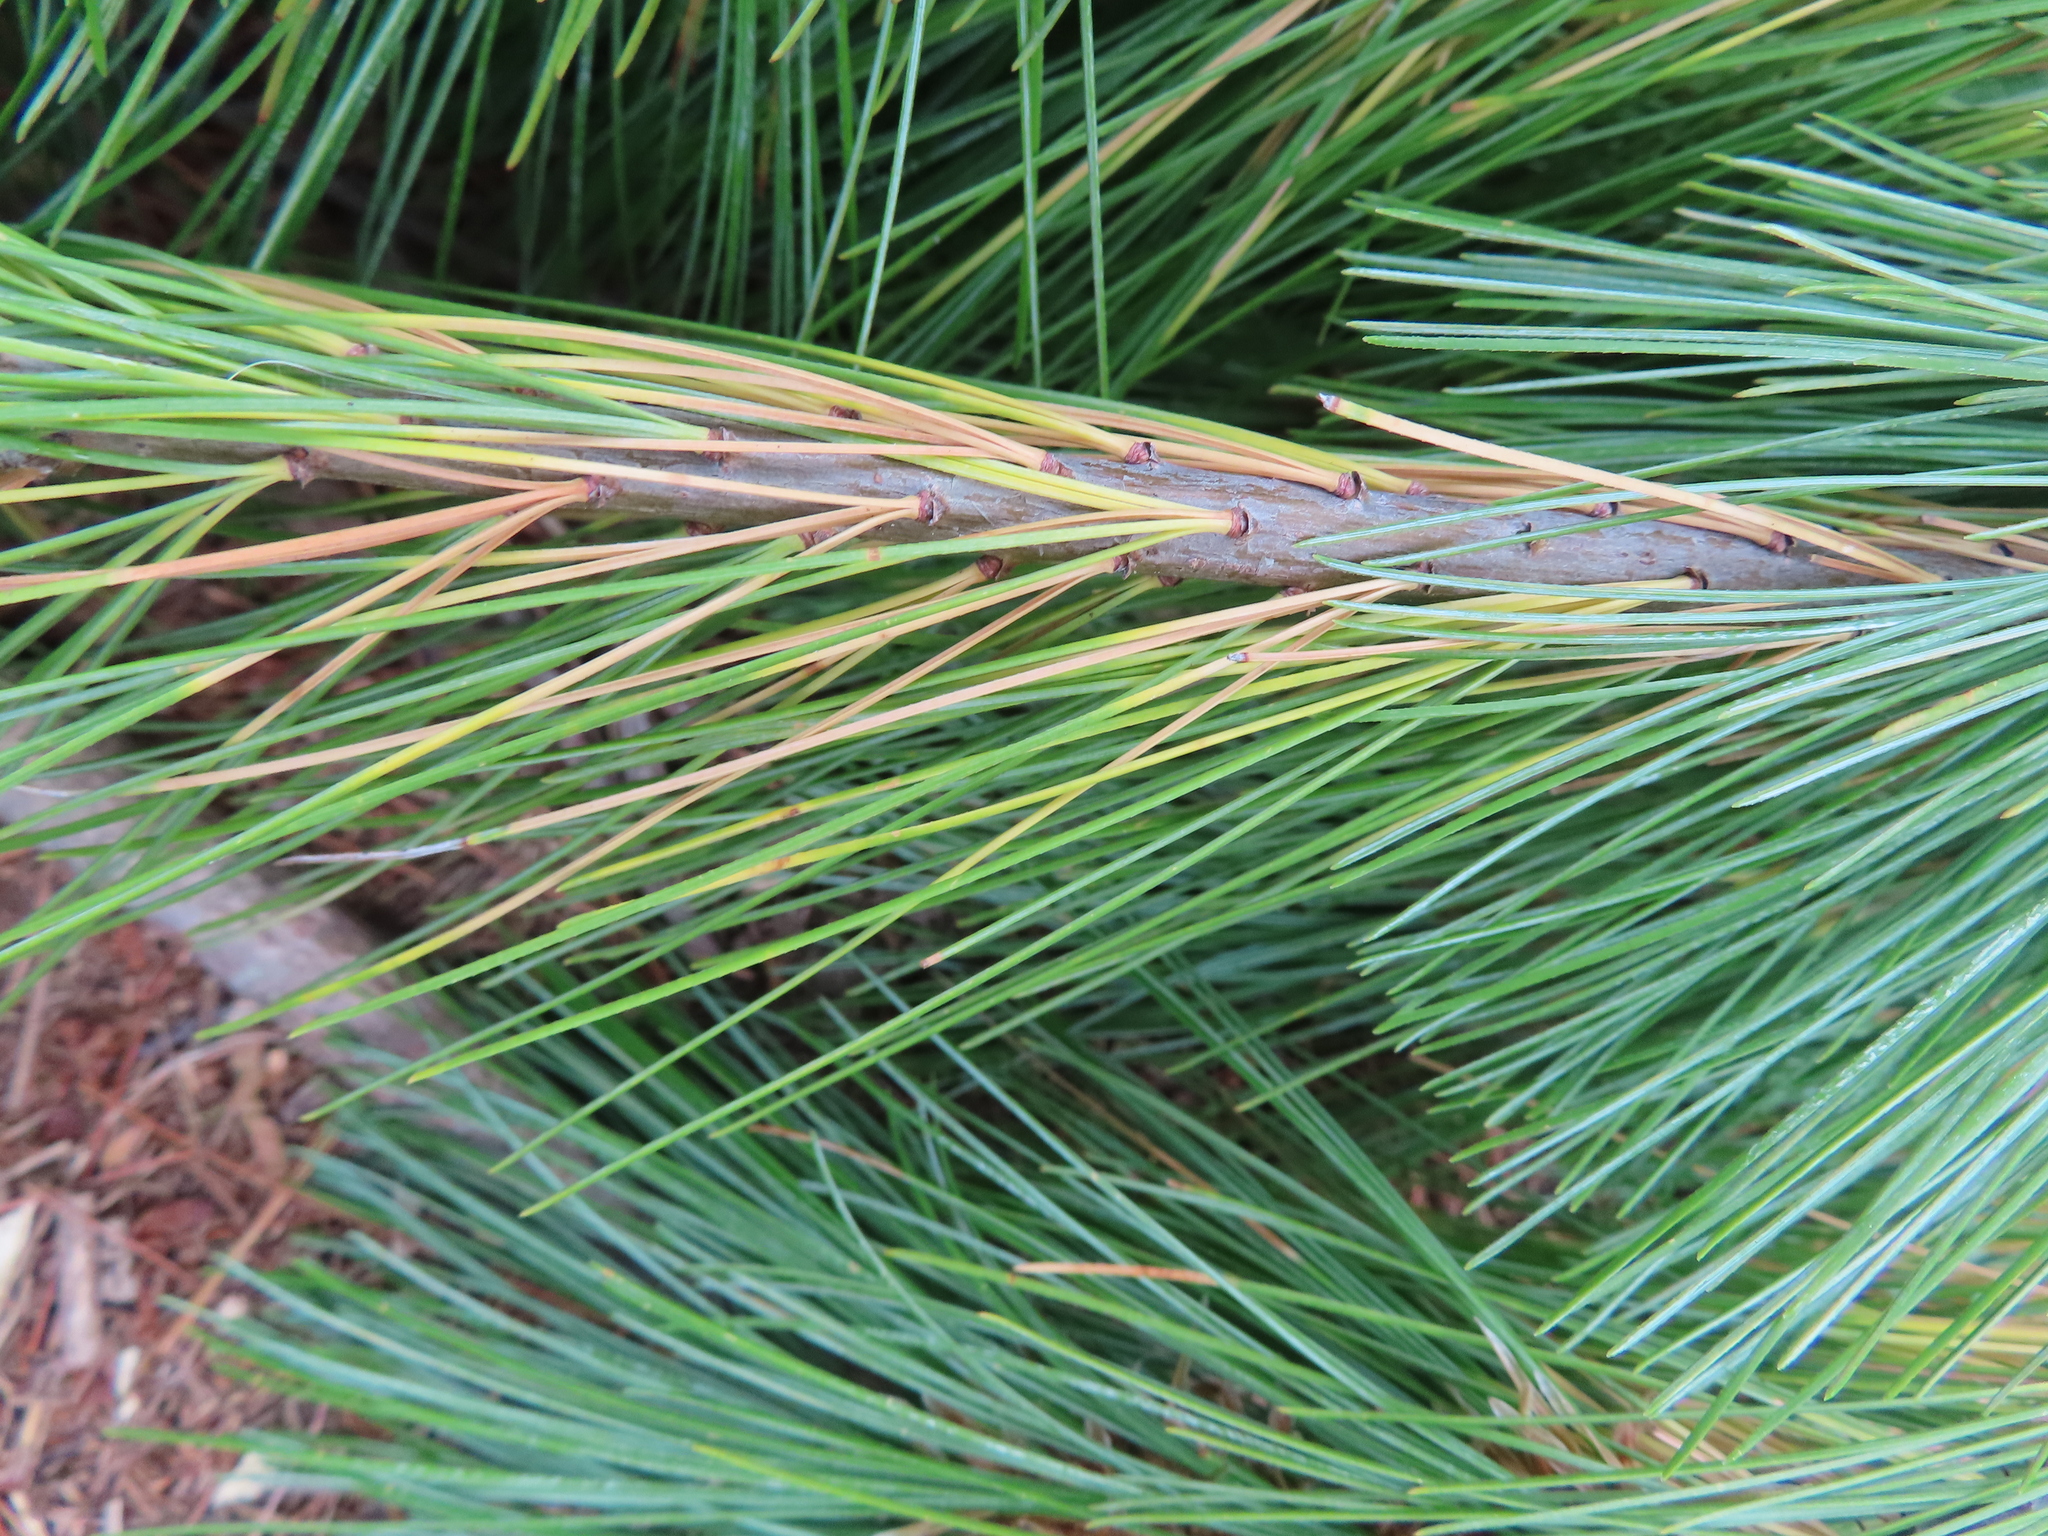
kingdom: Plantae
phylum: Tracheophyta
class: Pinopsida
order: Pinales
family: Pinaceae
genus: Pinus
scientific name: Pinus strobus
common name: Weymouth pine
